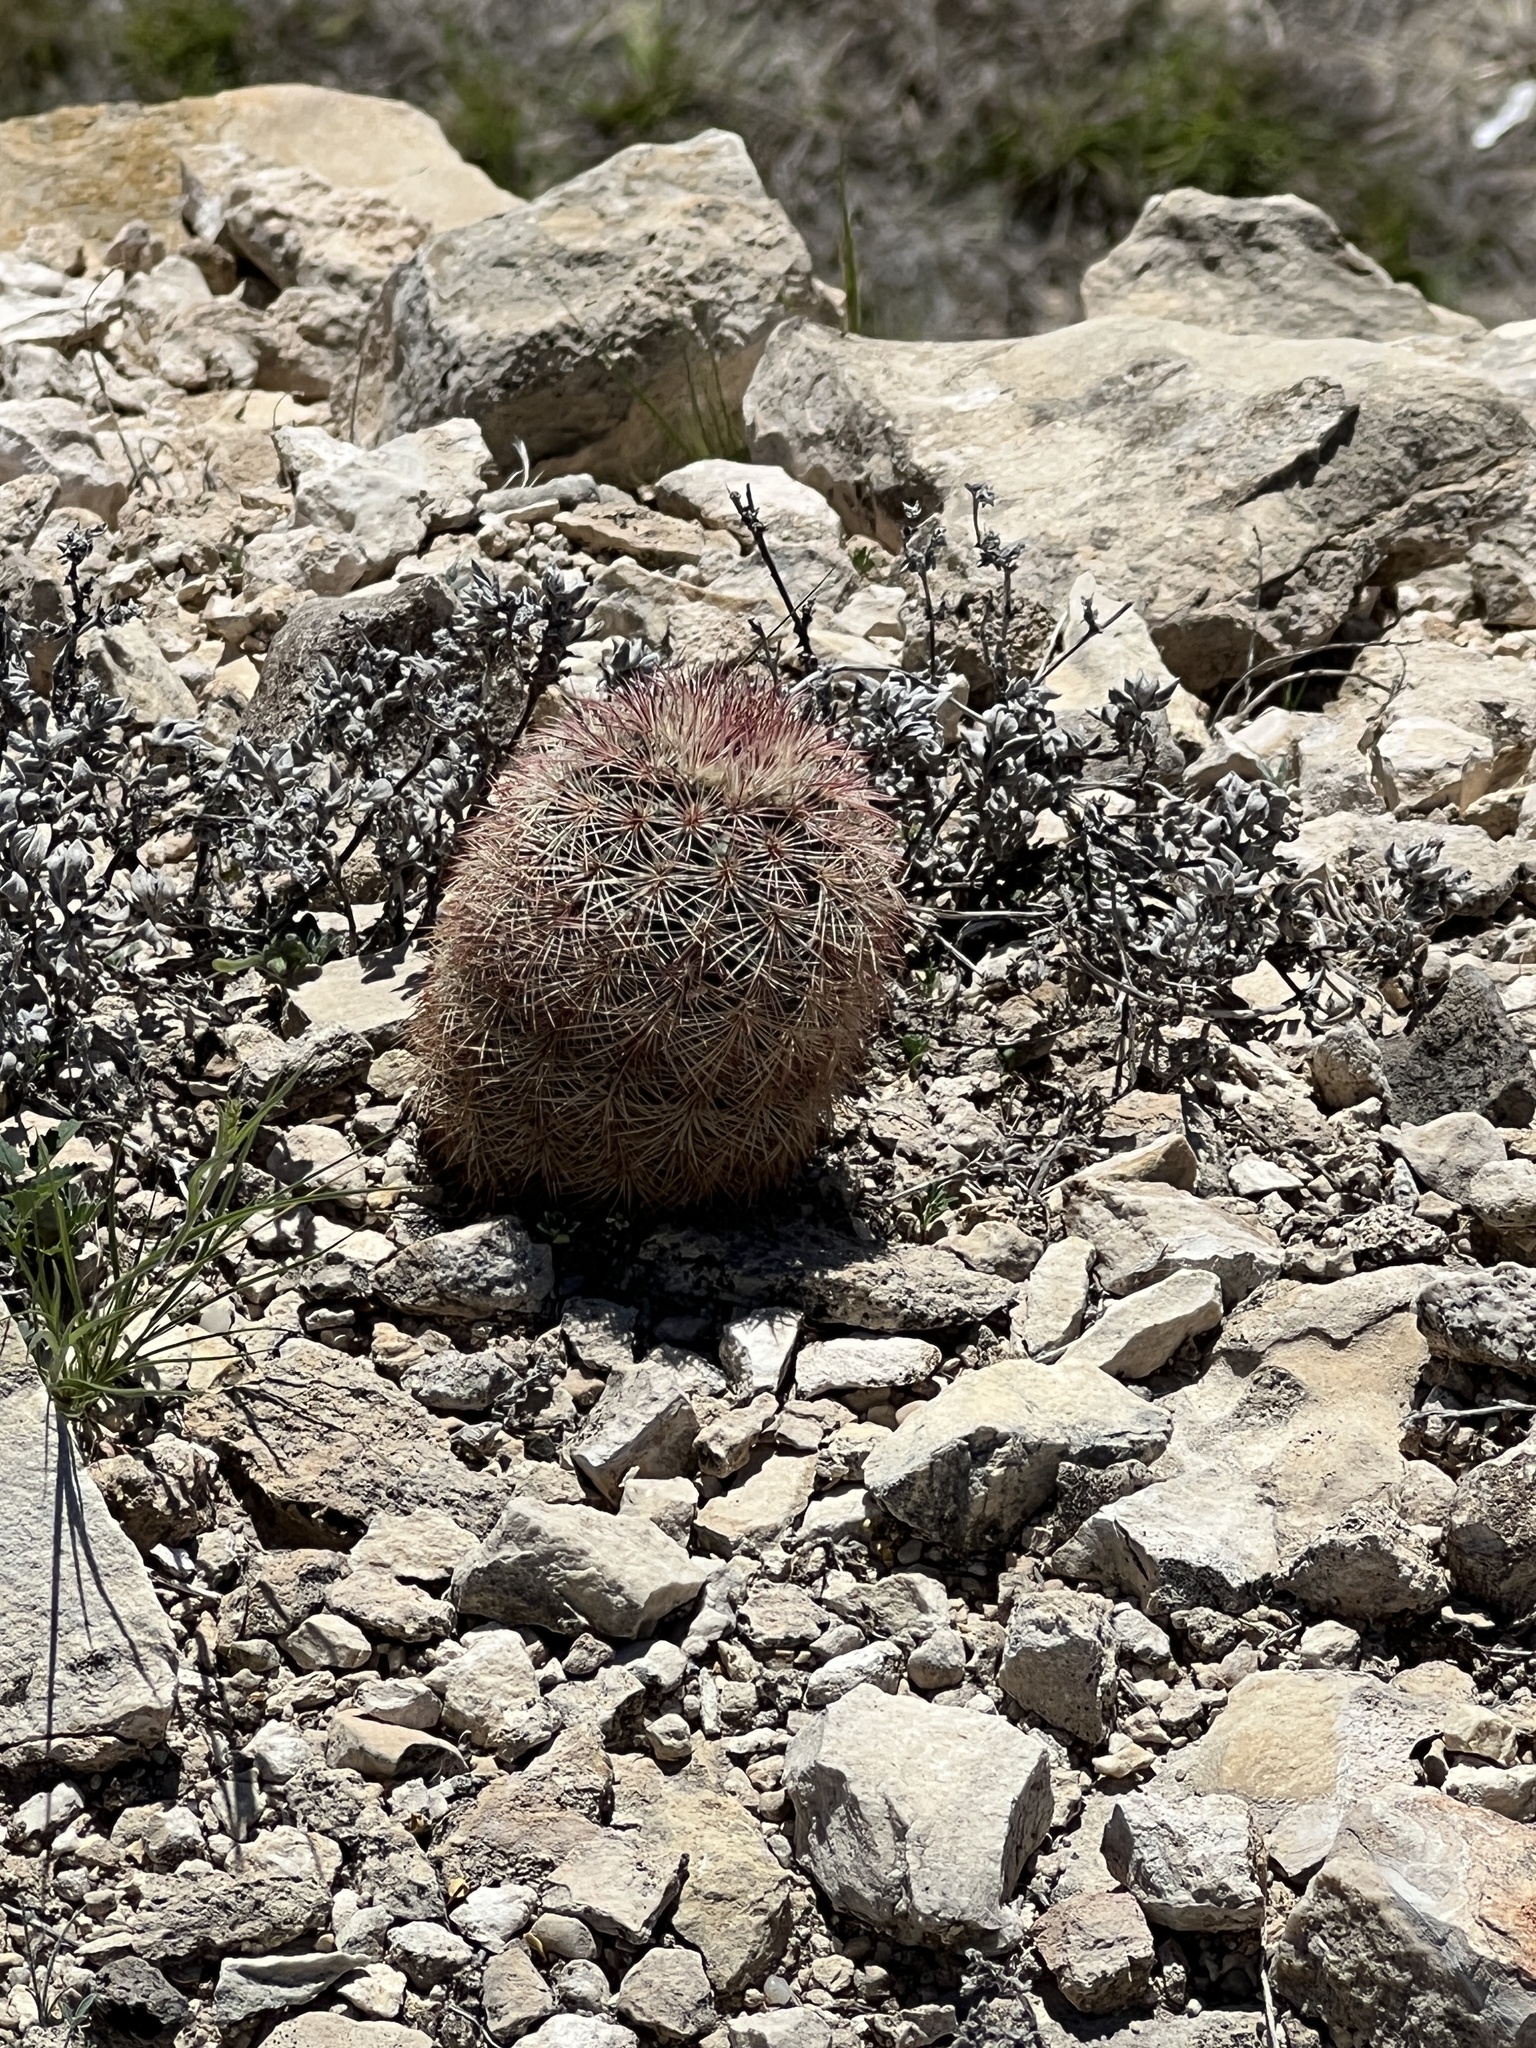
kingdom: Plantae
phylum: Tracheophyta
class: Magnoliopsida
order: Caryophyllales
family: Cactaceae
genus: Echinocereus
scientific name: Echinocereus dasyacanthus
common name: Spiny hedgehog cactus
